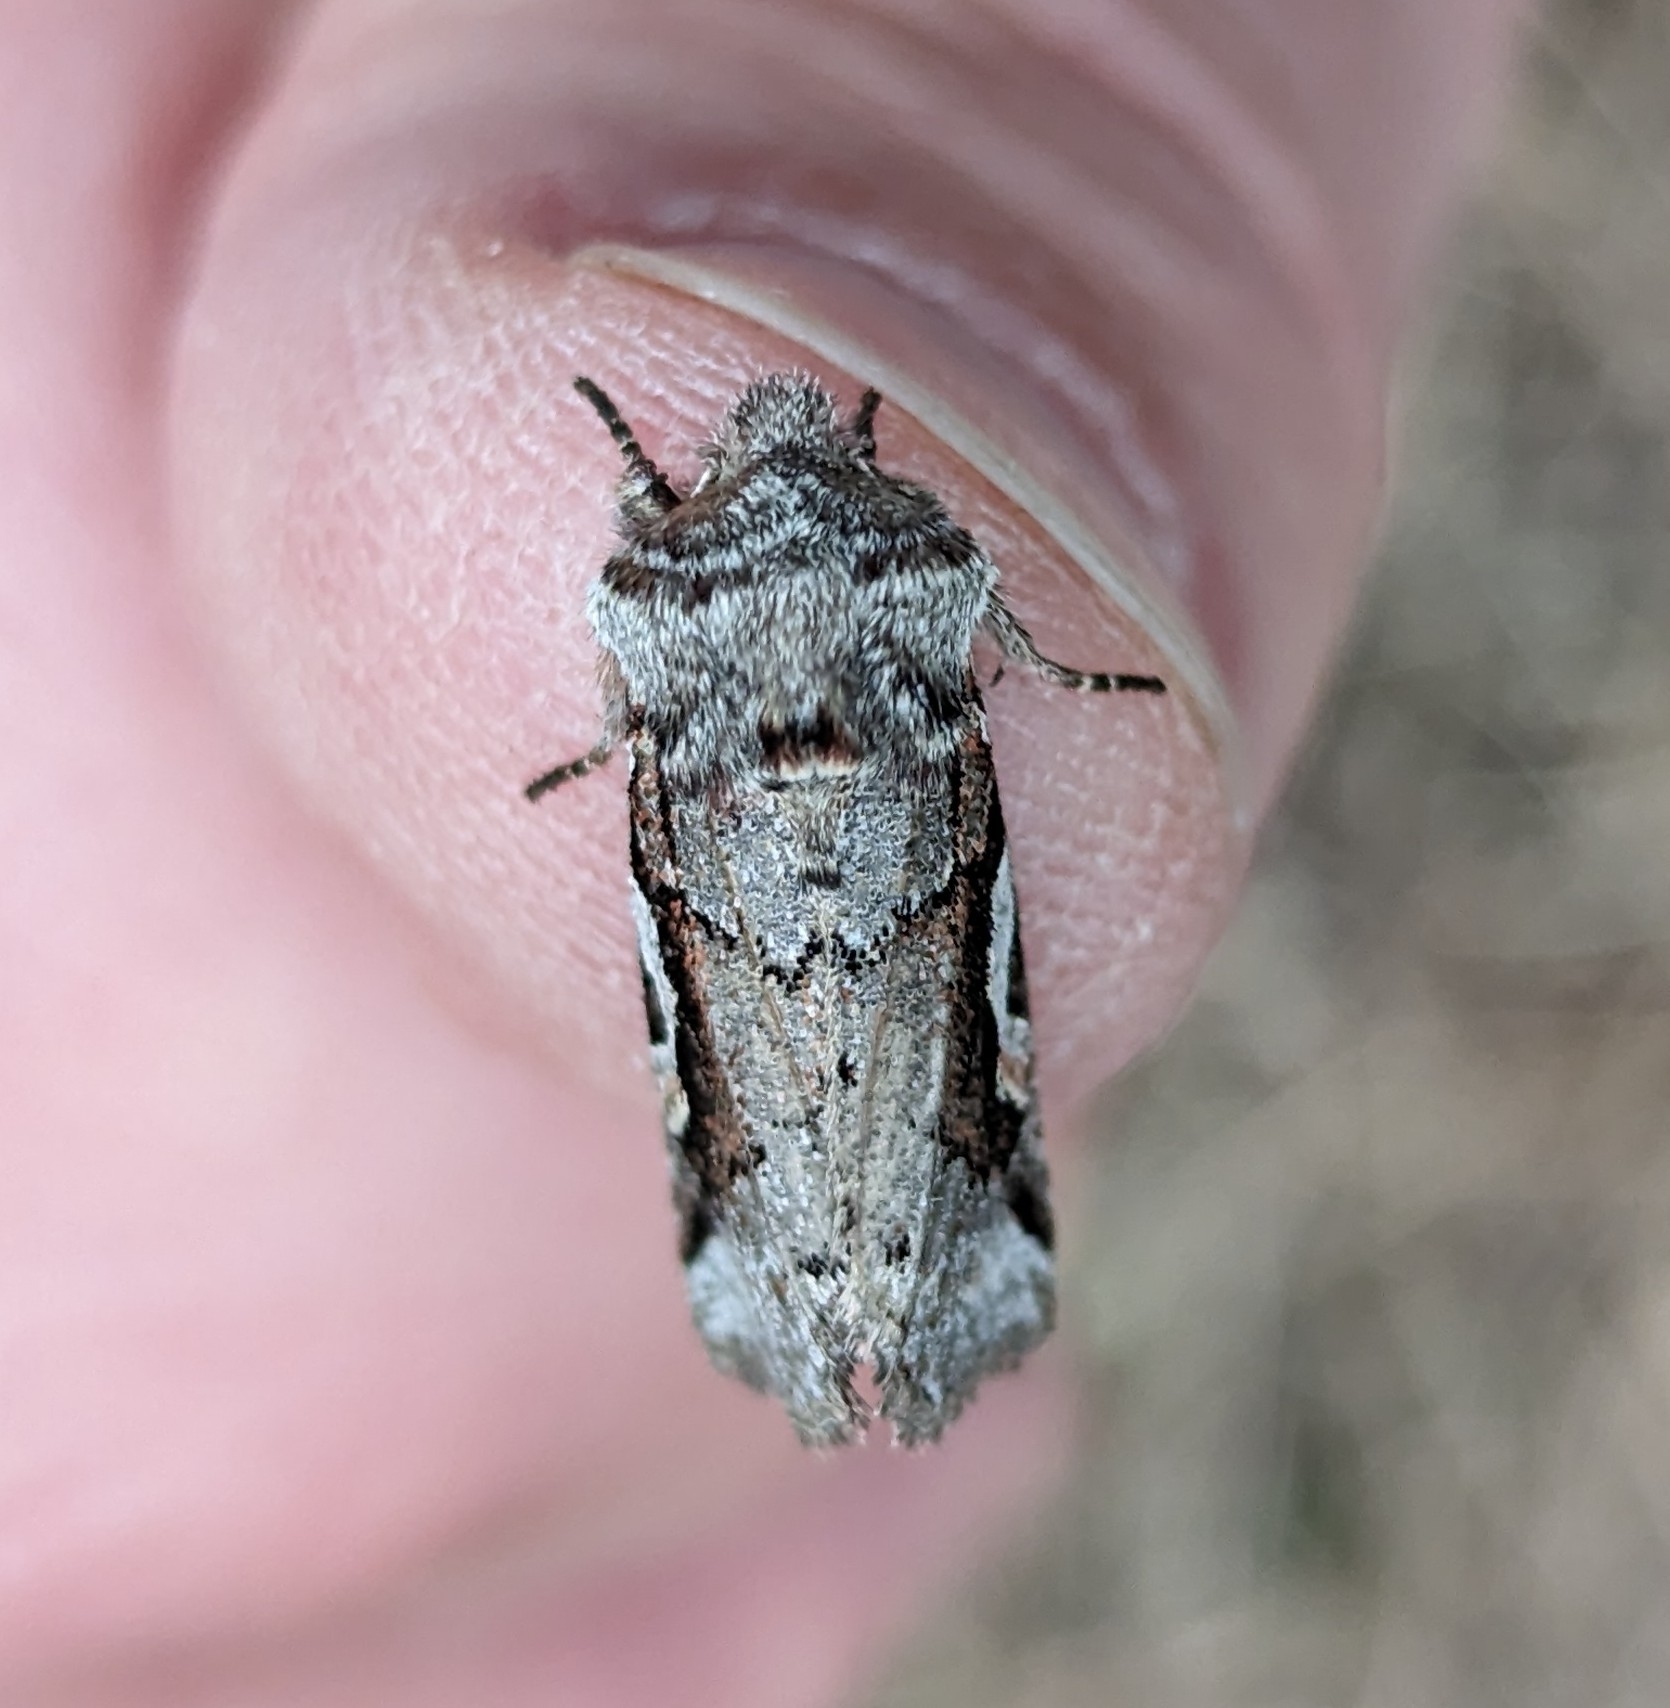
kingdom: Animalia
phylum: Arthropoda
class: Insecta
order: Lepidoptera
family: Noctuidae
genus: Stretchia
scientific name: Stretchia muricina
